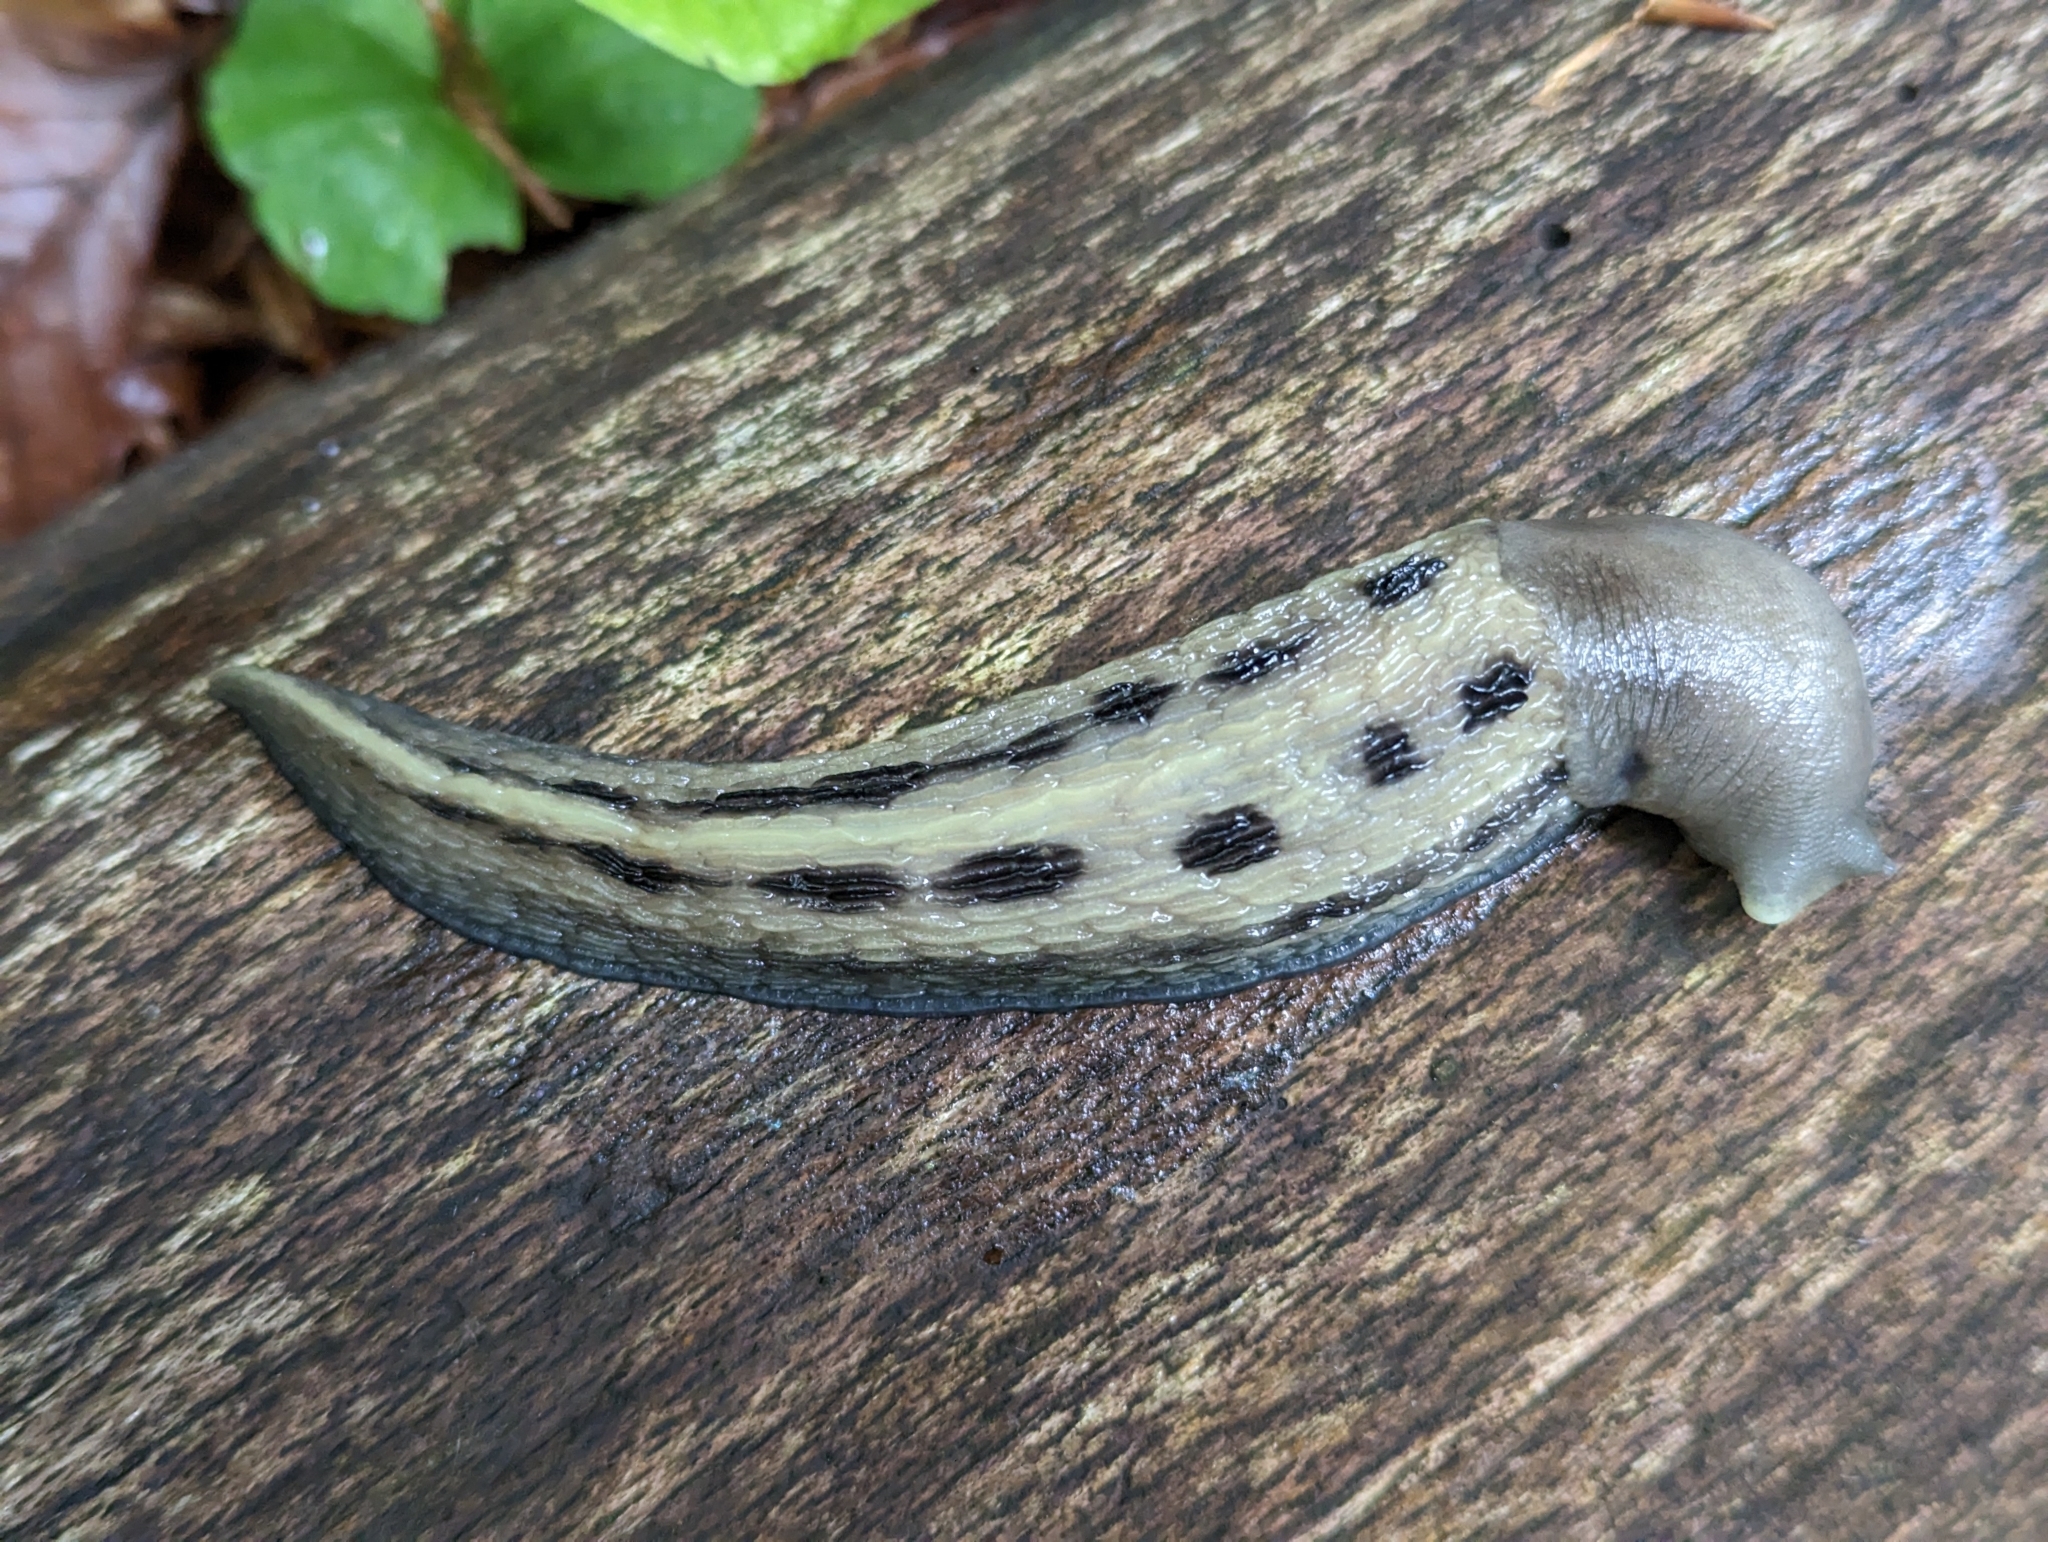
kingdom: Animalia
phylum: Mollusca
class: Gastropoda
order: Stylommatophora
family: Limacidae
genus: Limax
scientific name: Limax cinereoniger
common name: Ash-black slug
